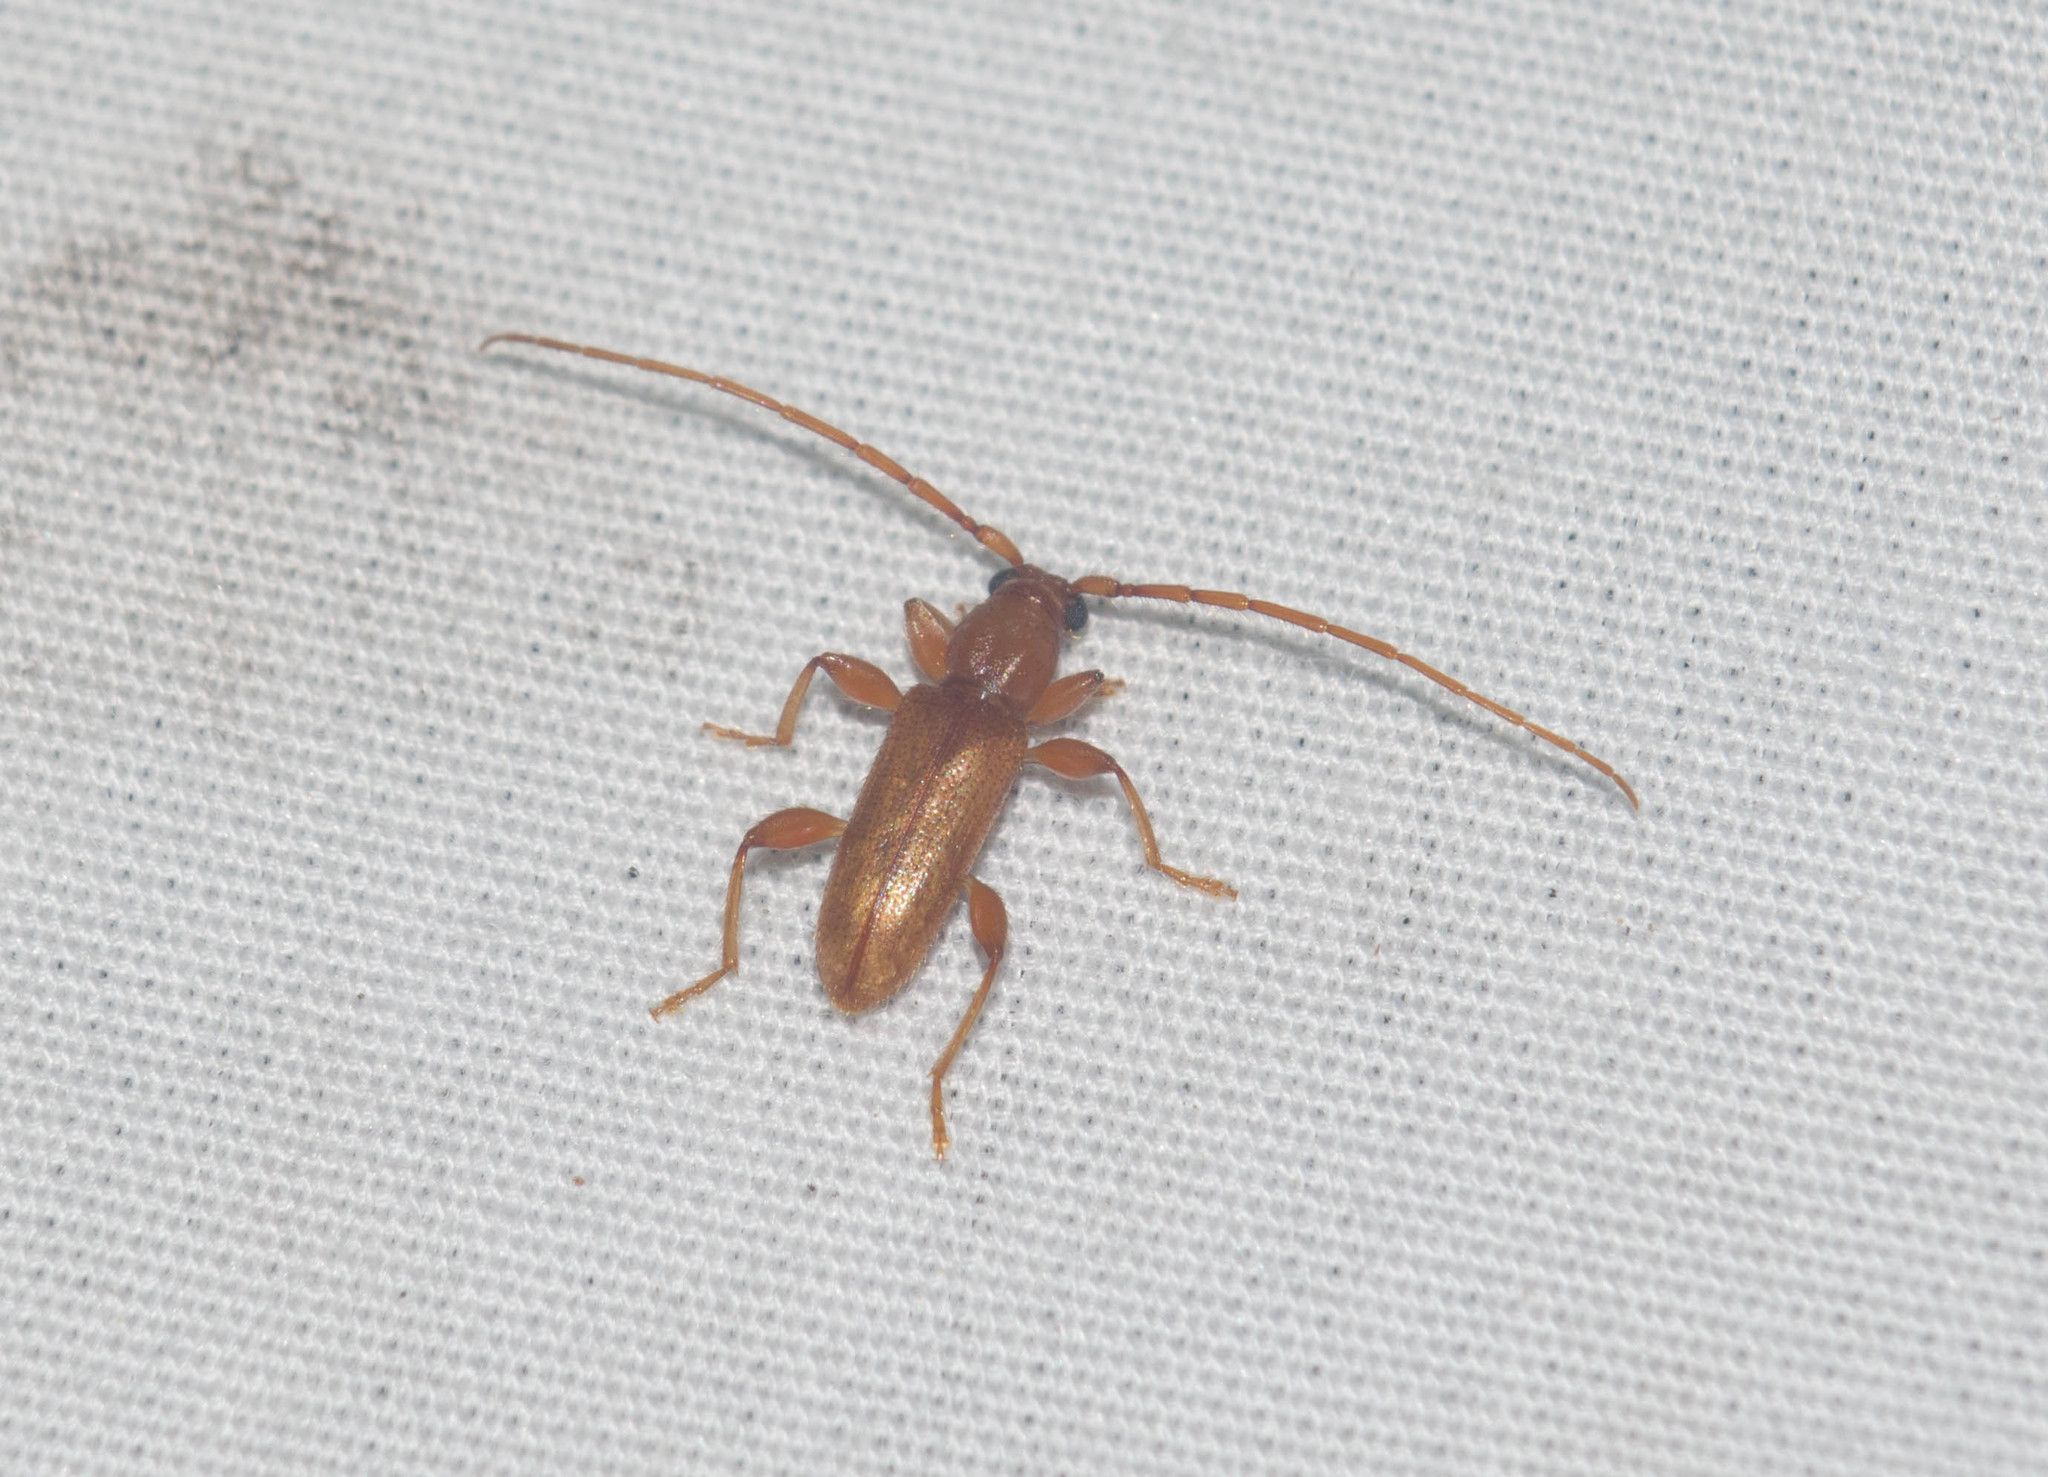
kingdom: Animalia
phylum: Arthropoda
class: Insecta
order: Coleoptera
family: Cerambycidae
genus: Curtomerus
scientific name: Curtomerus flavus
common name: Curtomerus long-horned beetle
